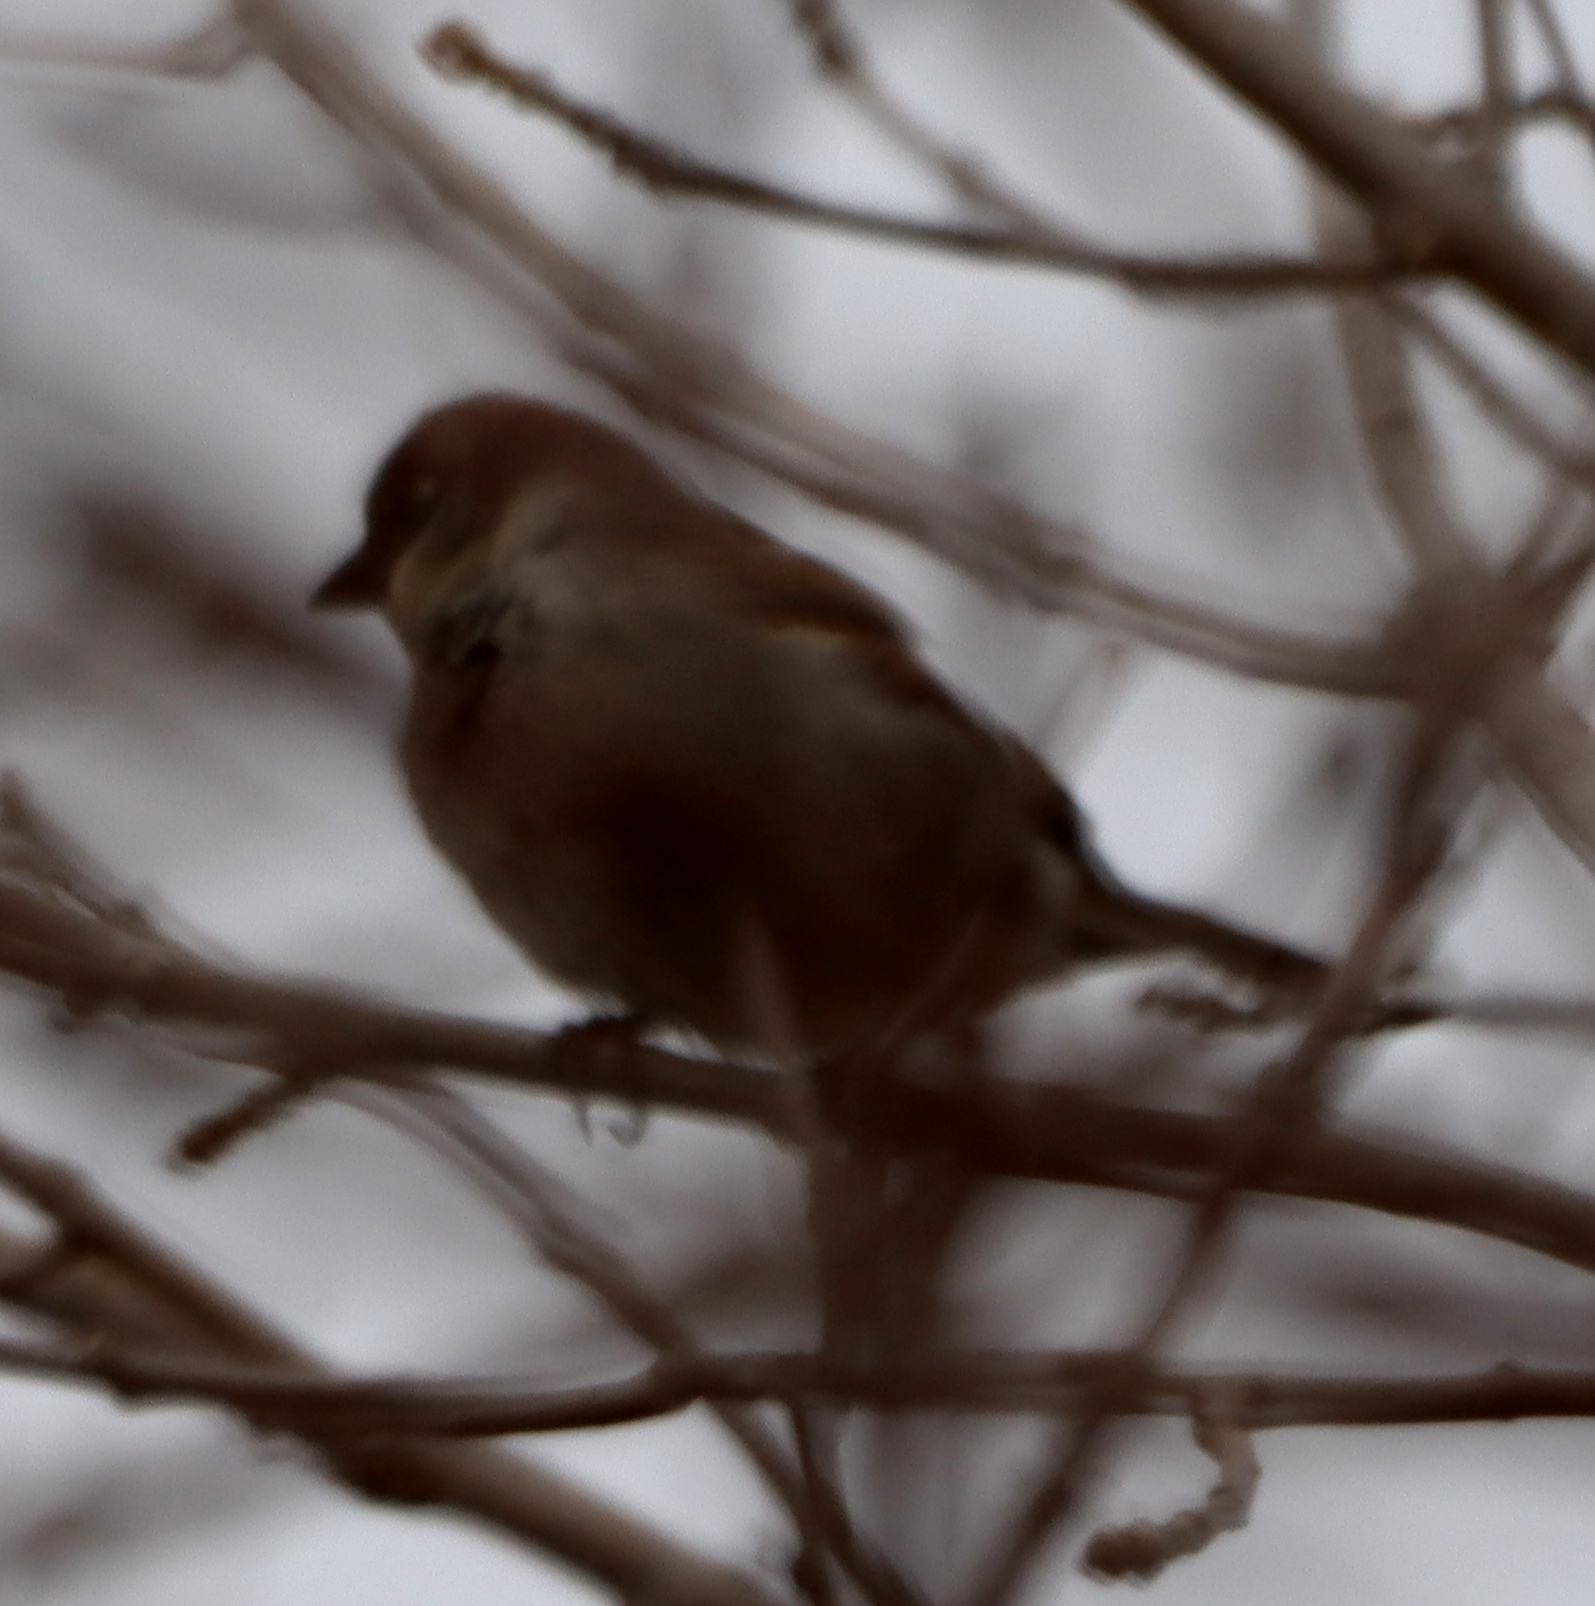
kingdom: Animalia
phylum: Chordata
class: Aves
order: Passeriformes
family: Passeridae
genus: Passer
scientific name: Passer domesticus
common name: House sparrow
